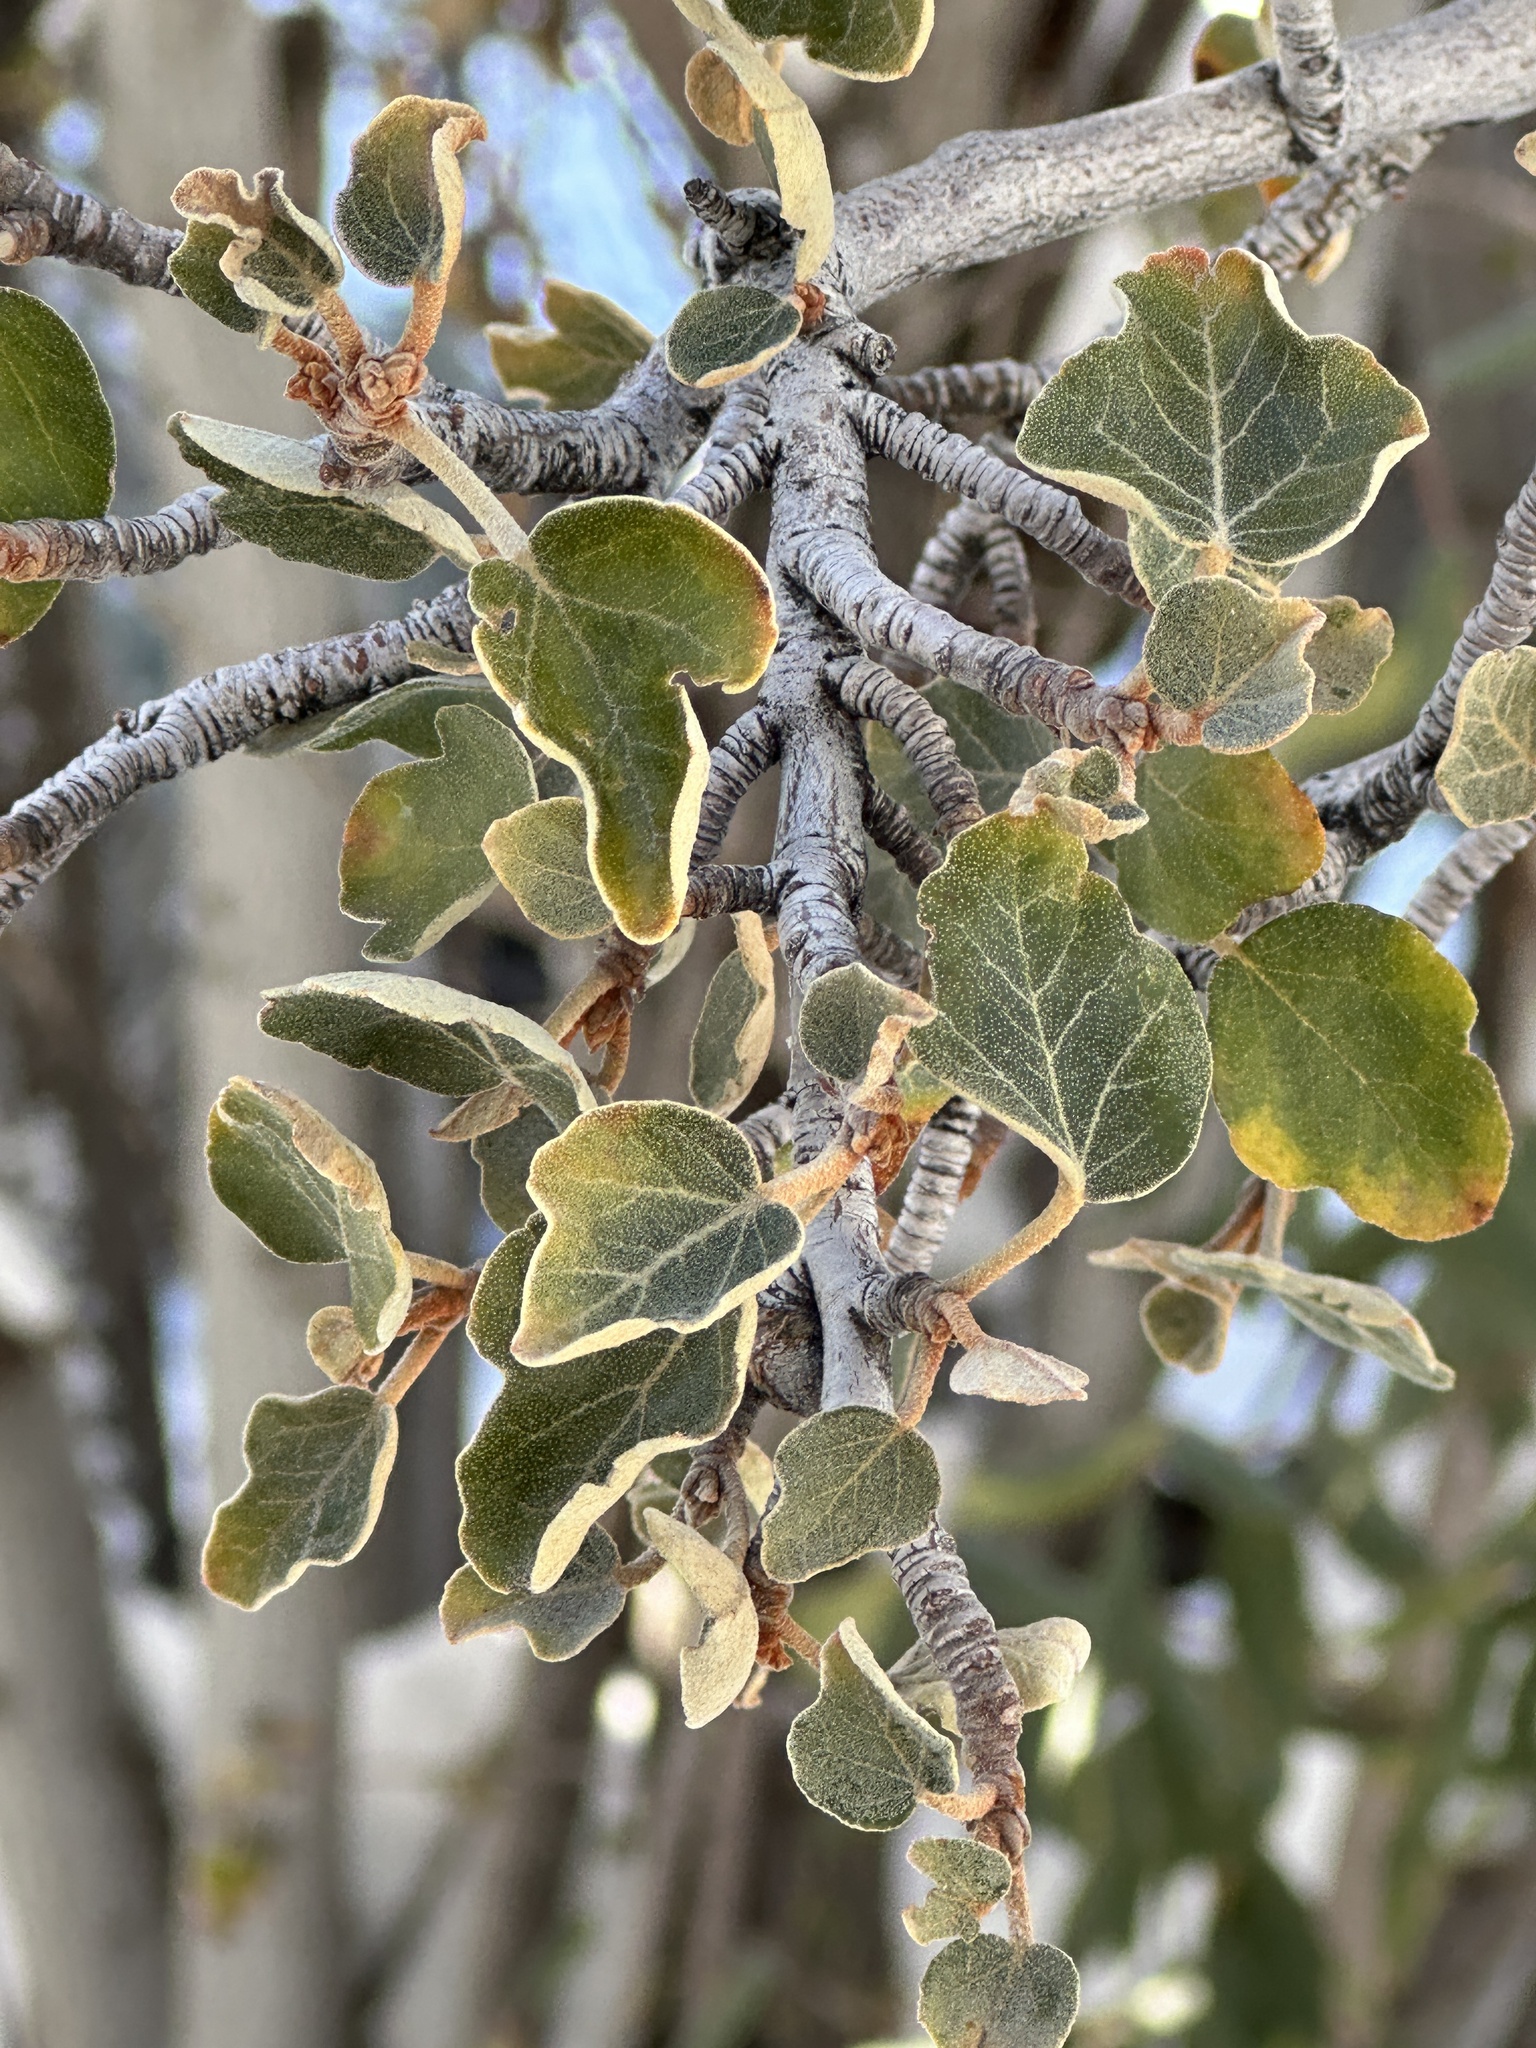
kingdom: Plantae
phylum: Tracheophyta
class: Magnoliopsida
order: Malvales
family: Malvaceae
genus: Fremontodendron
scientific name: Fremontodendron californicum
